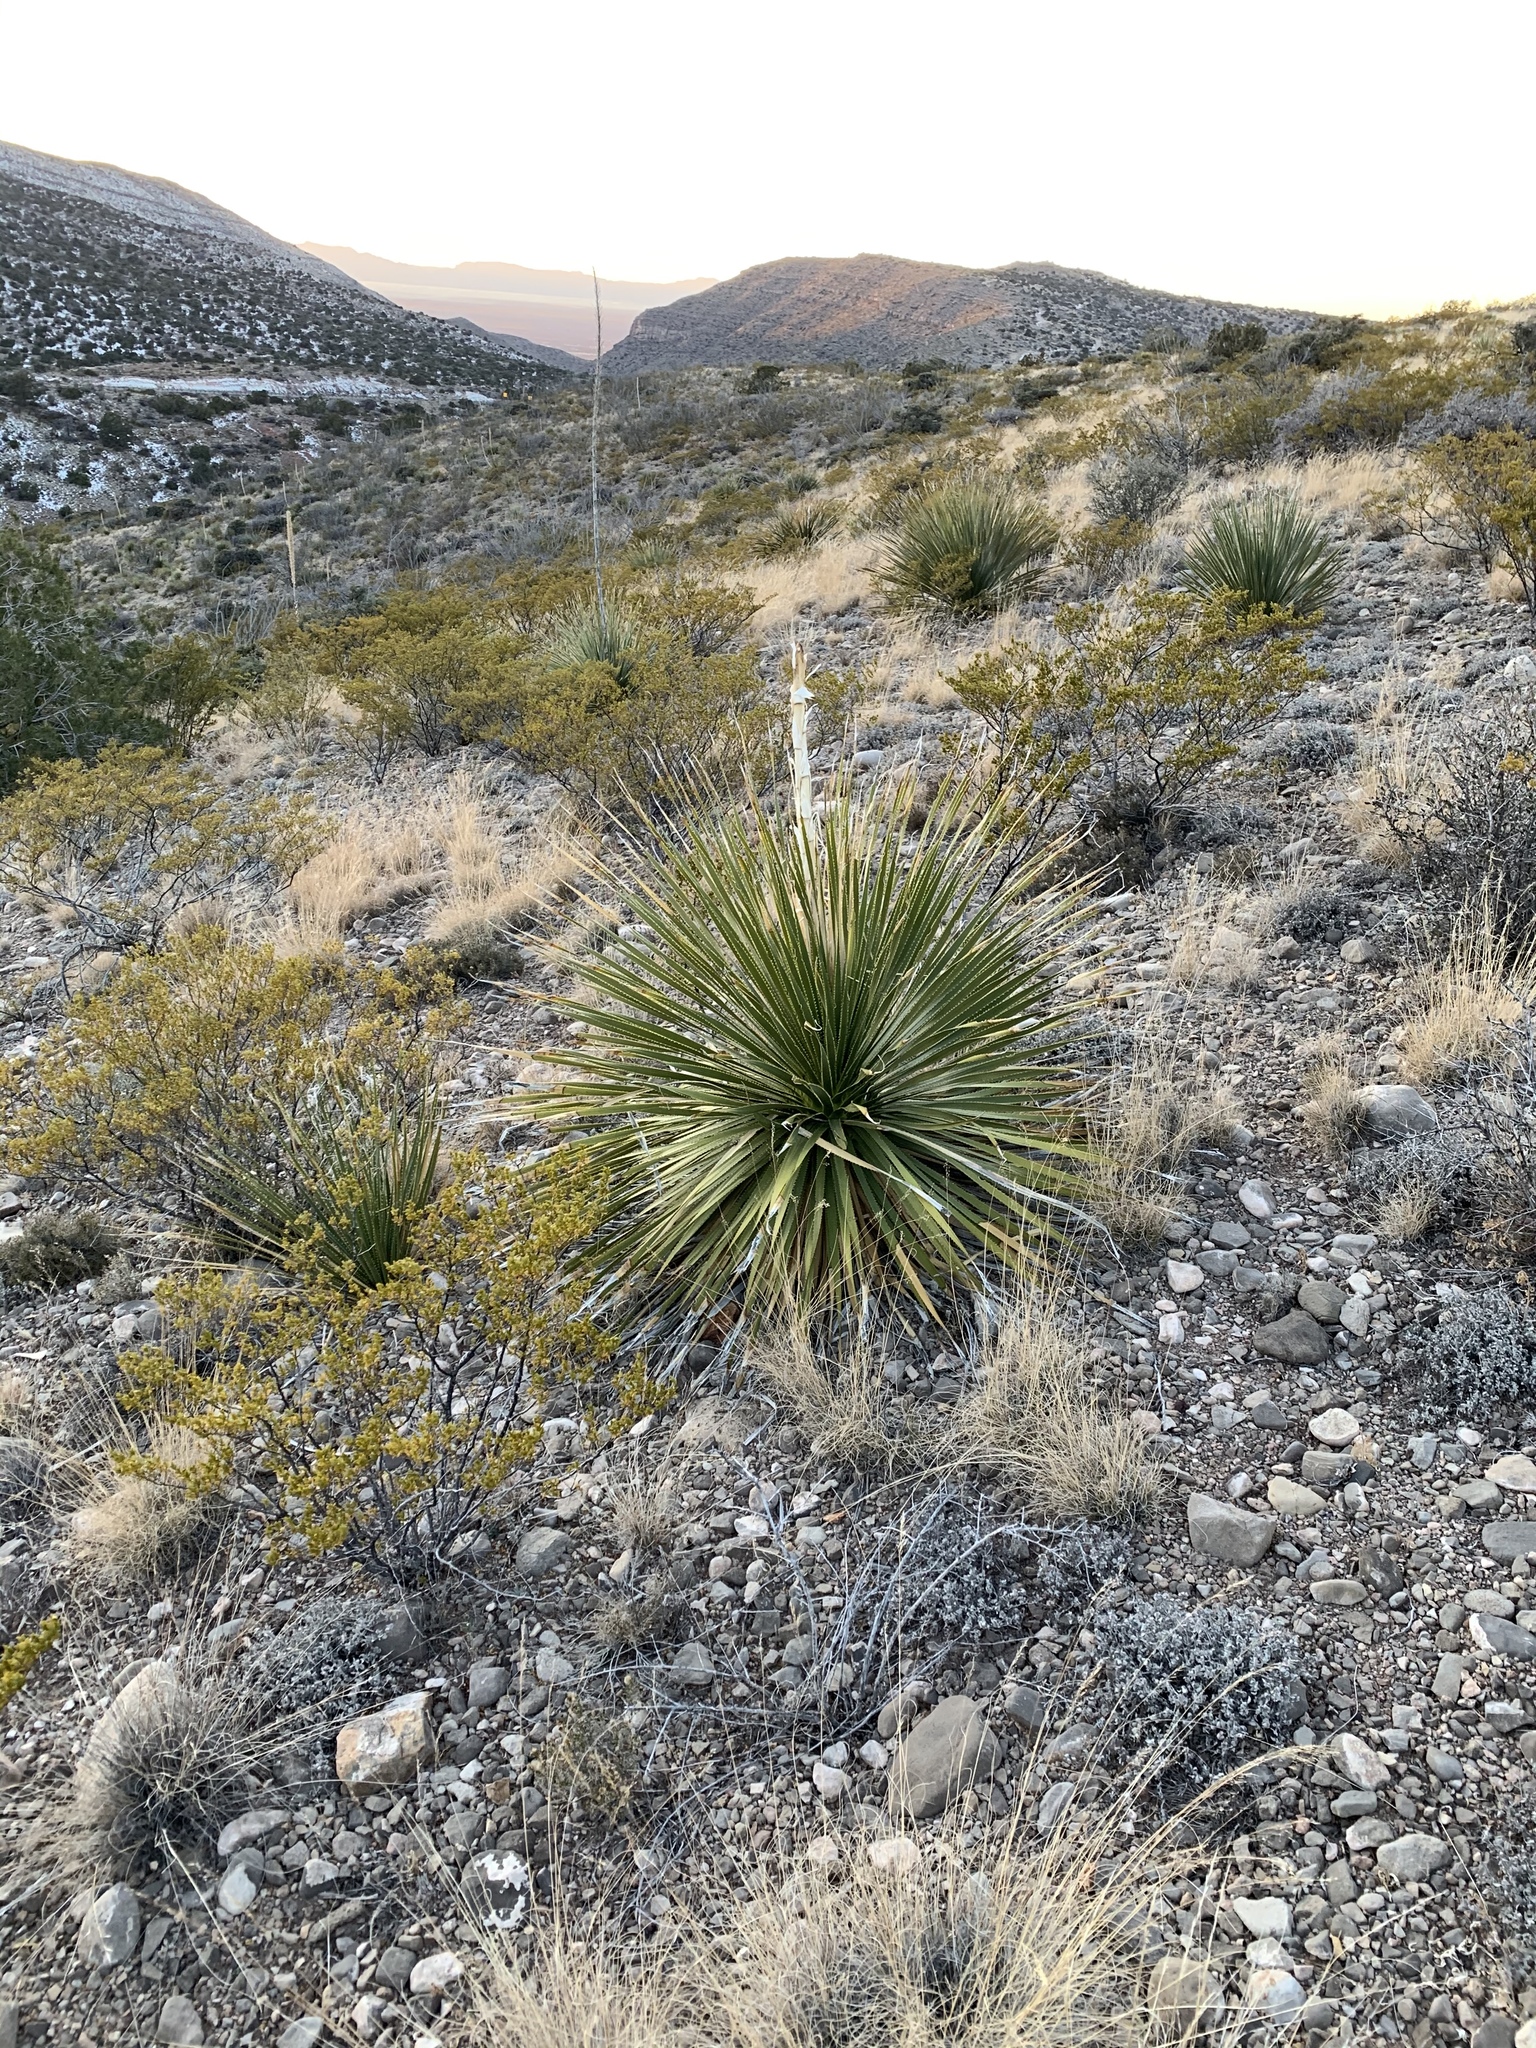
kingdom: Plantae
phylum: Tracheophyta
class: Liliopsida
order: Asparagales
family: Asparagaceae
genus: Dasylirion
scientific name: Dasylirion wheeleri
